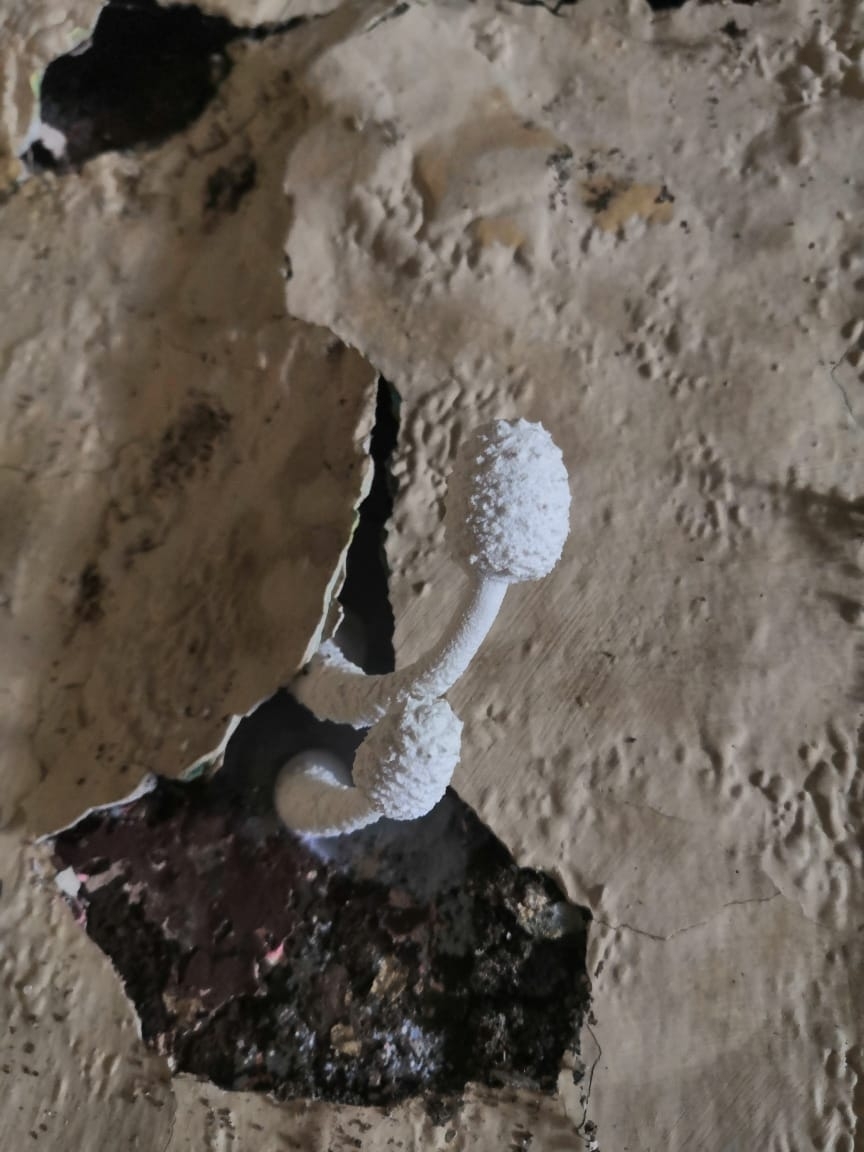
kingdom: Fungi
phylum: Basidiomycota
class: Agaricomycetes
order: Agaricales
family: Agaricaceae
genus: Leucocoprinus
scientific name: Leucocoprinus cretaceus
